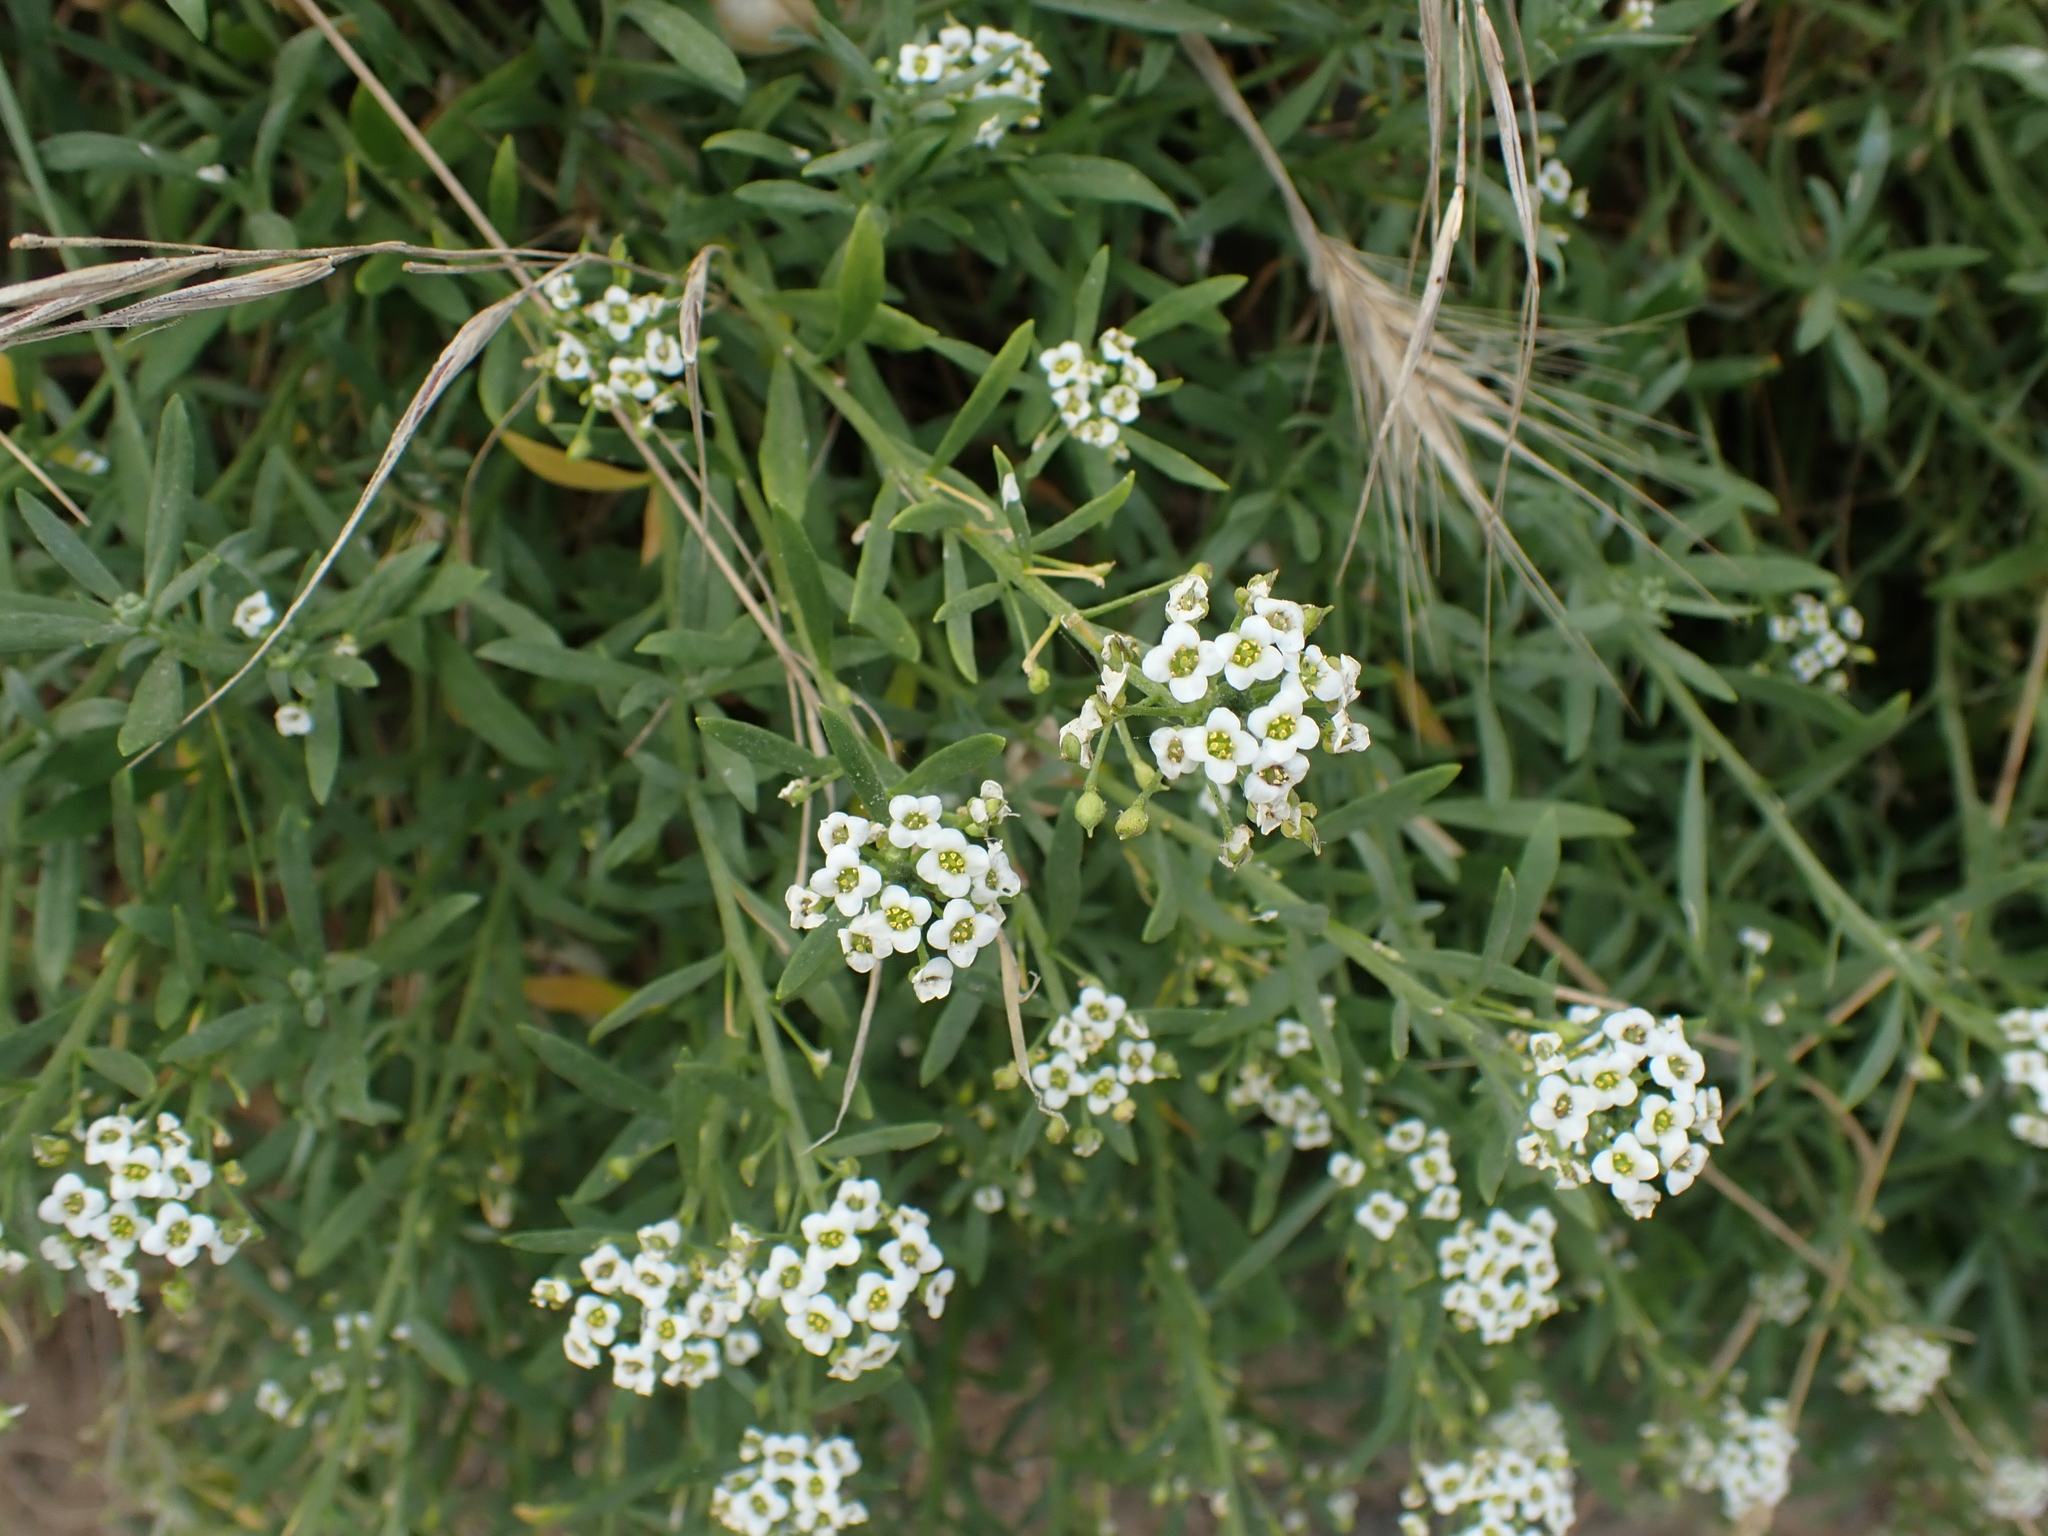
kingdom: Plantae
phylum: Tracheophyta
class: Magnoliopsida
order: Brassicales
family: Brassicaceae
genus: Lobularia
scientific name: Lobularia maritima
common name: Sweet alison
